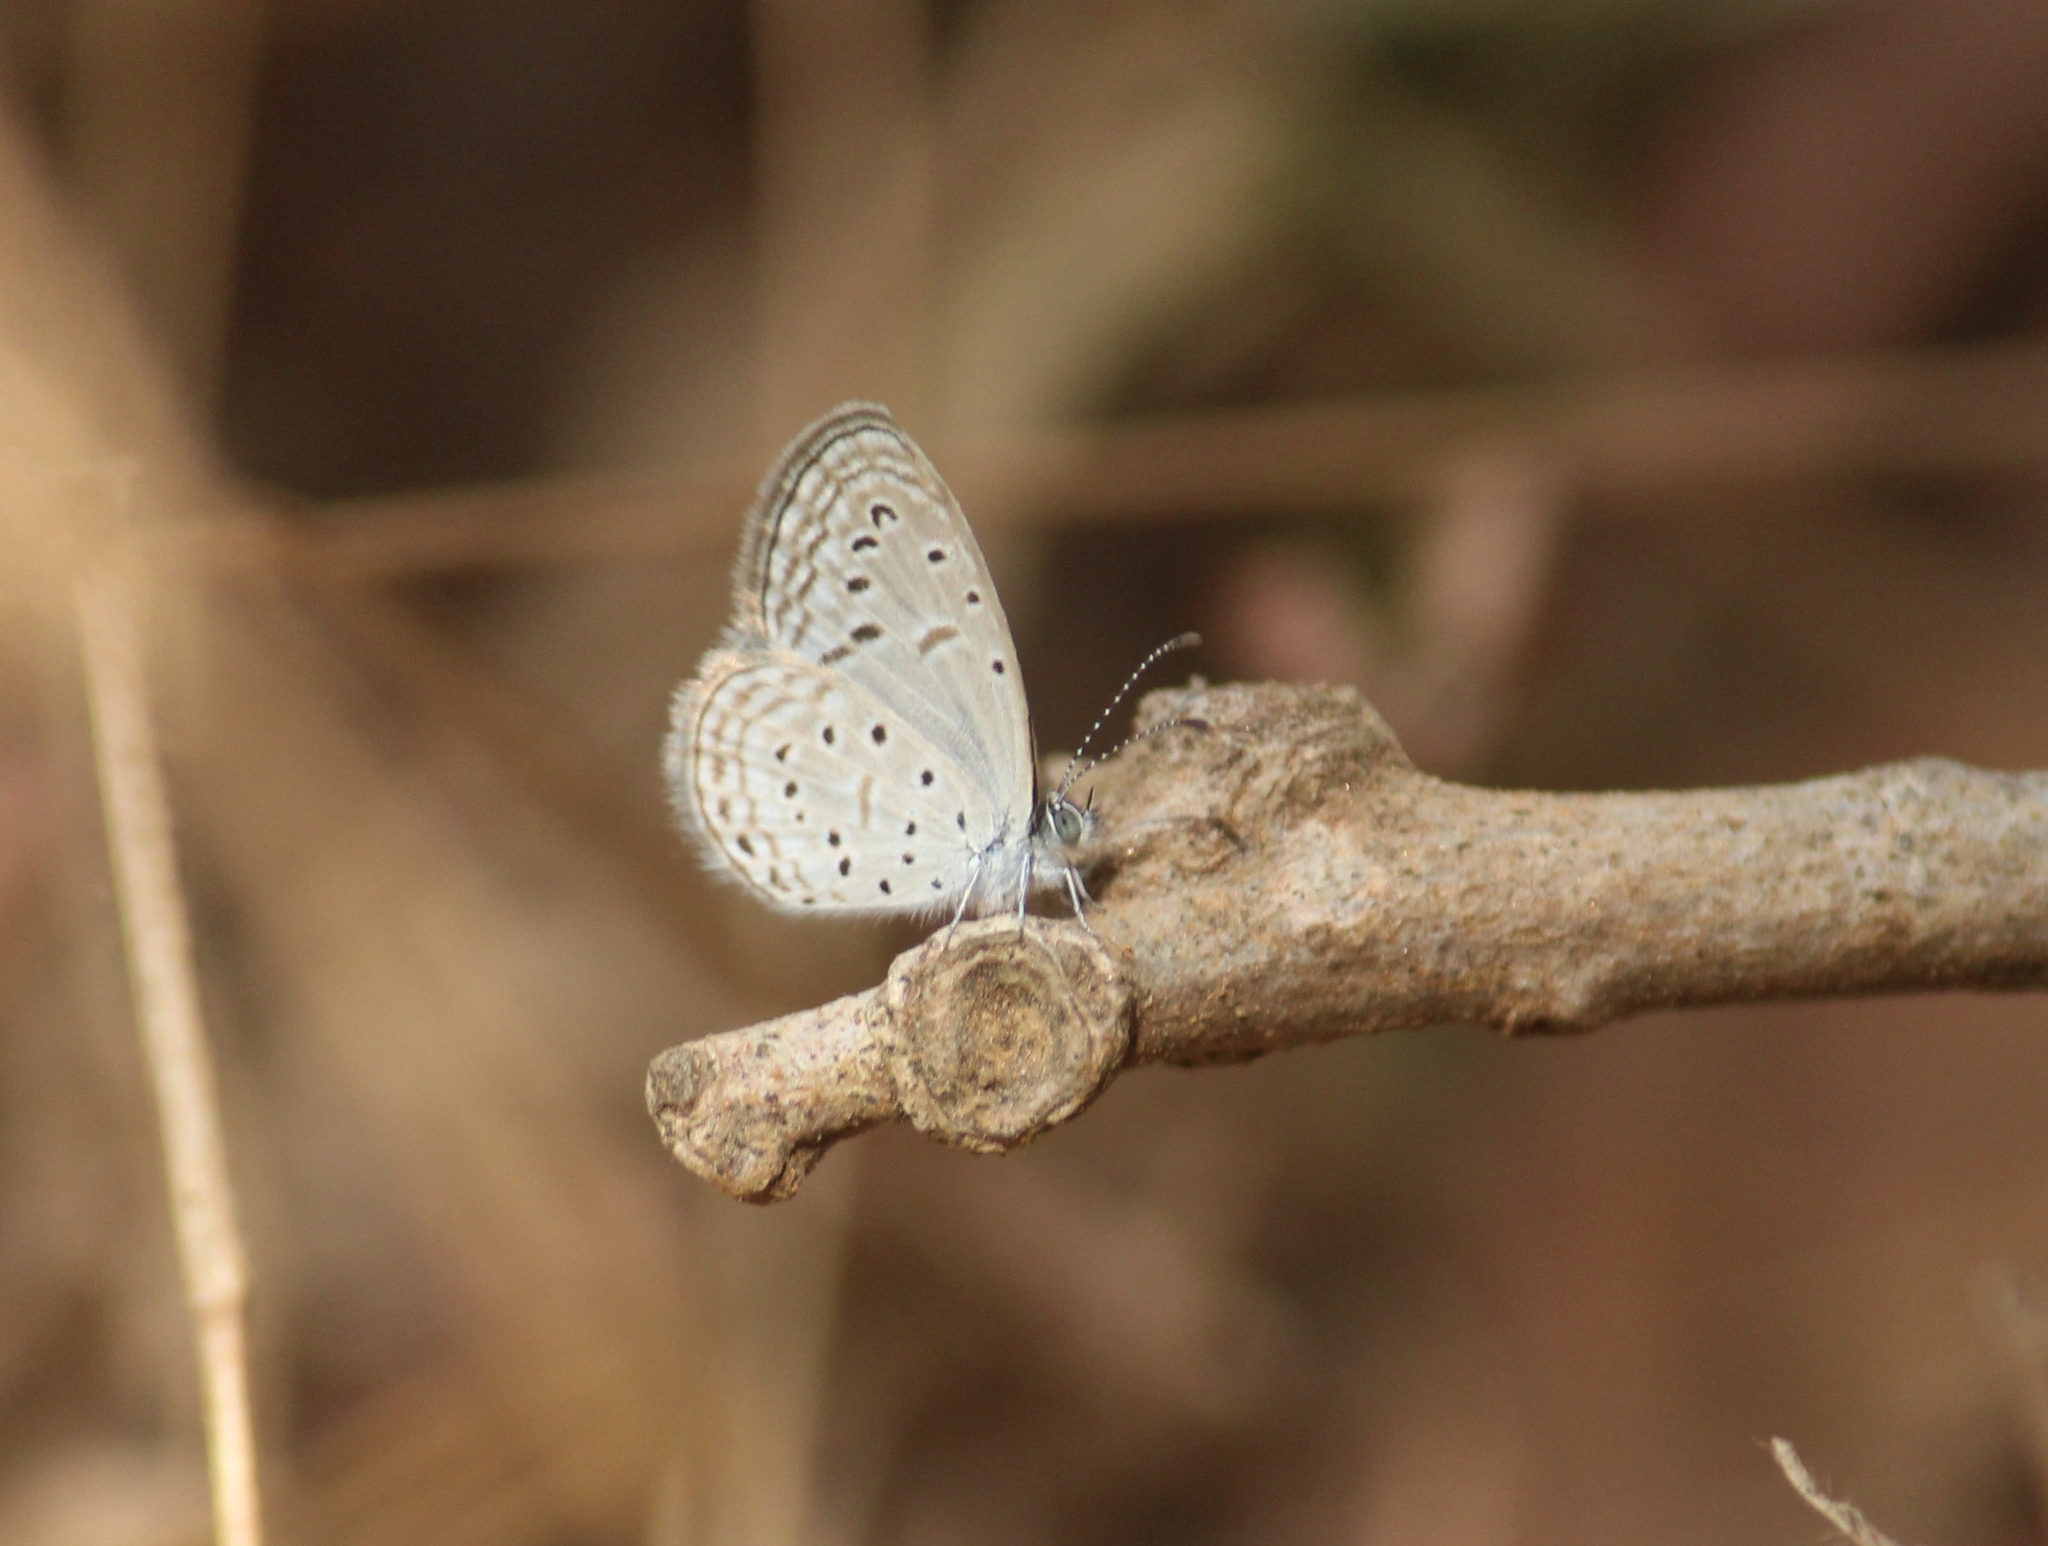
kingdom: Animalia
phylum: Arthropoda
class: Insecta
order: Lepidoptera
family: Lycaenidae
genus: Zizula
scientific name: Zizula hylax
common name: Gaika blue
